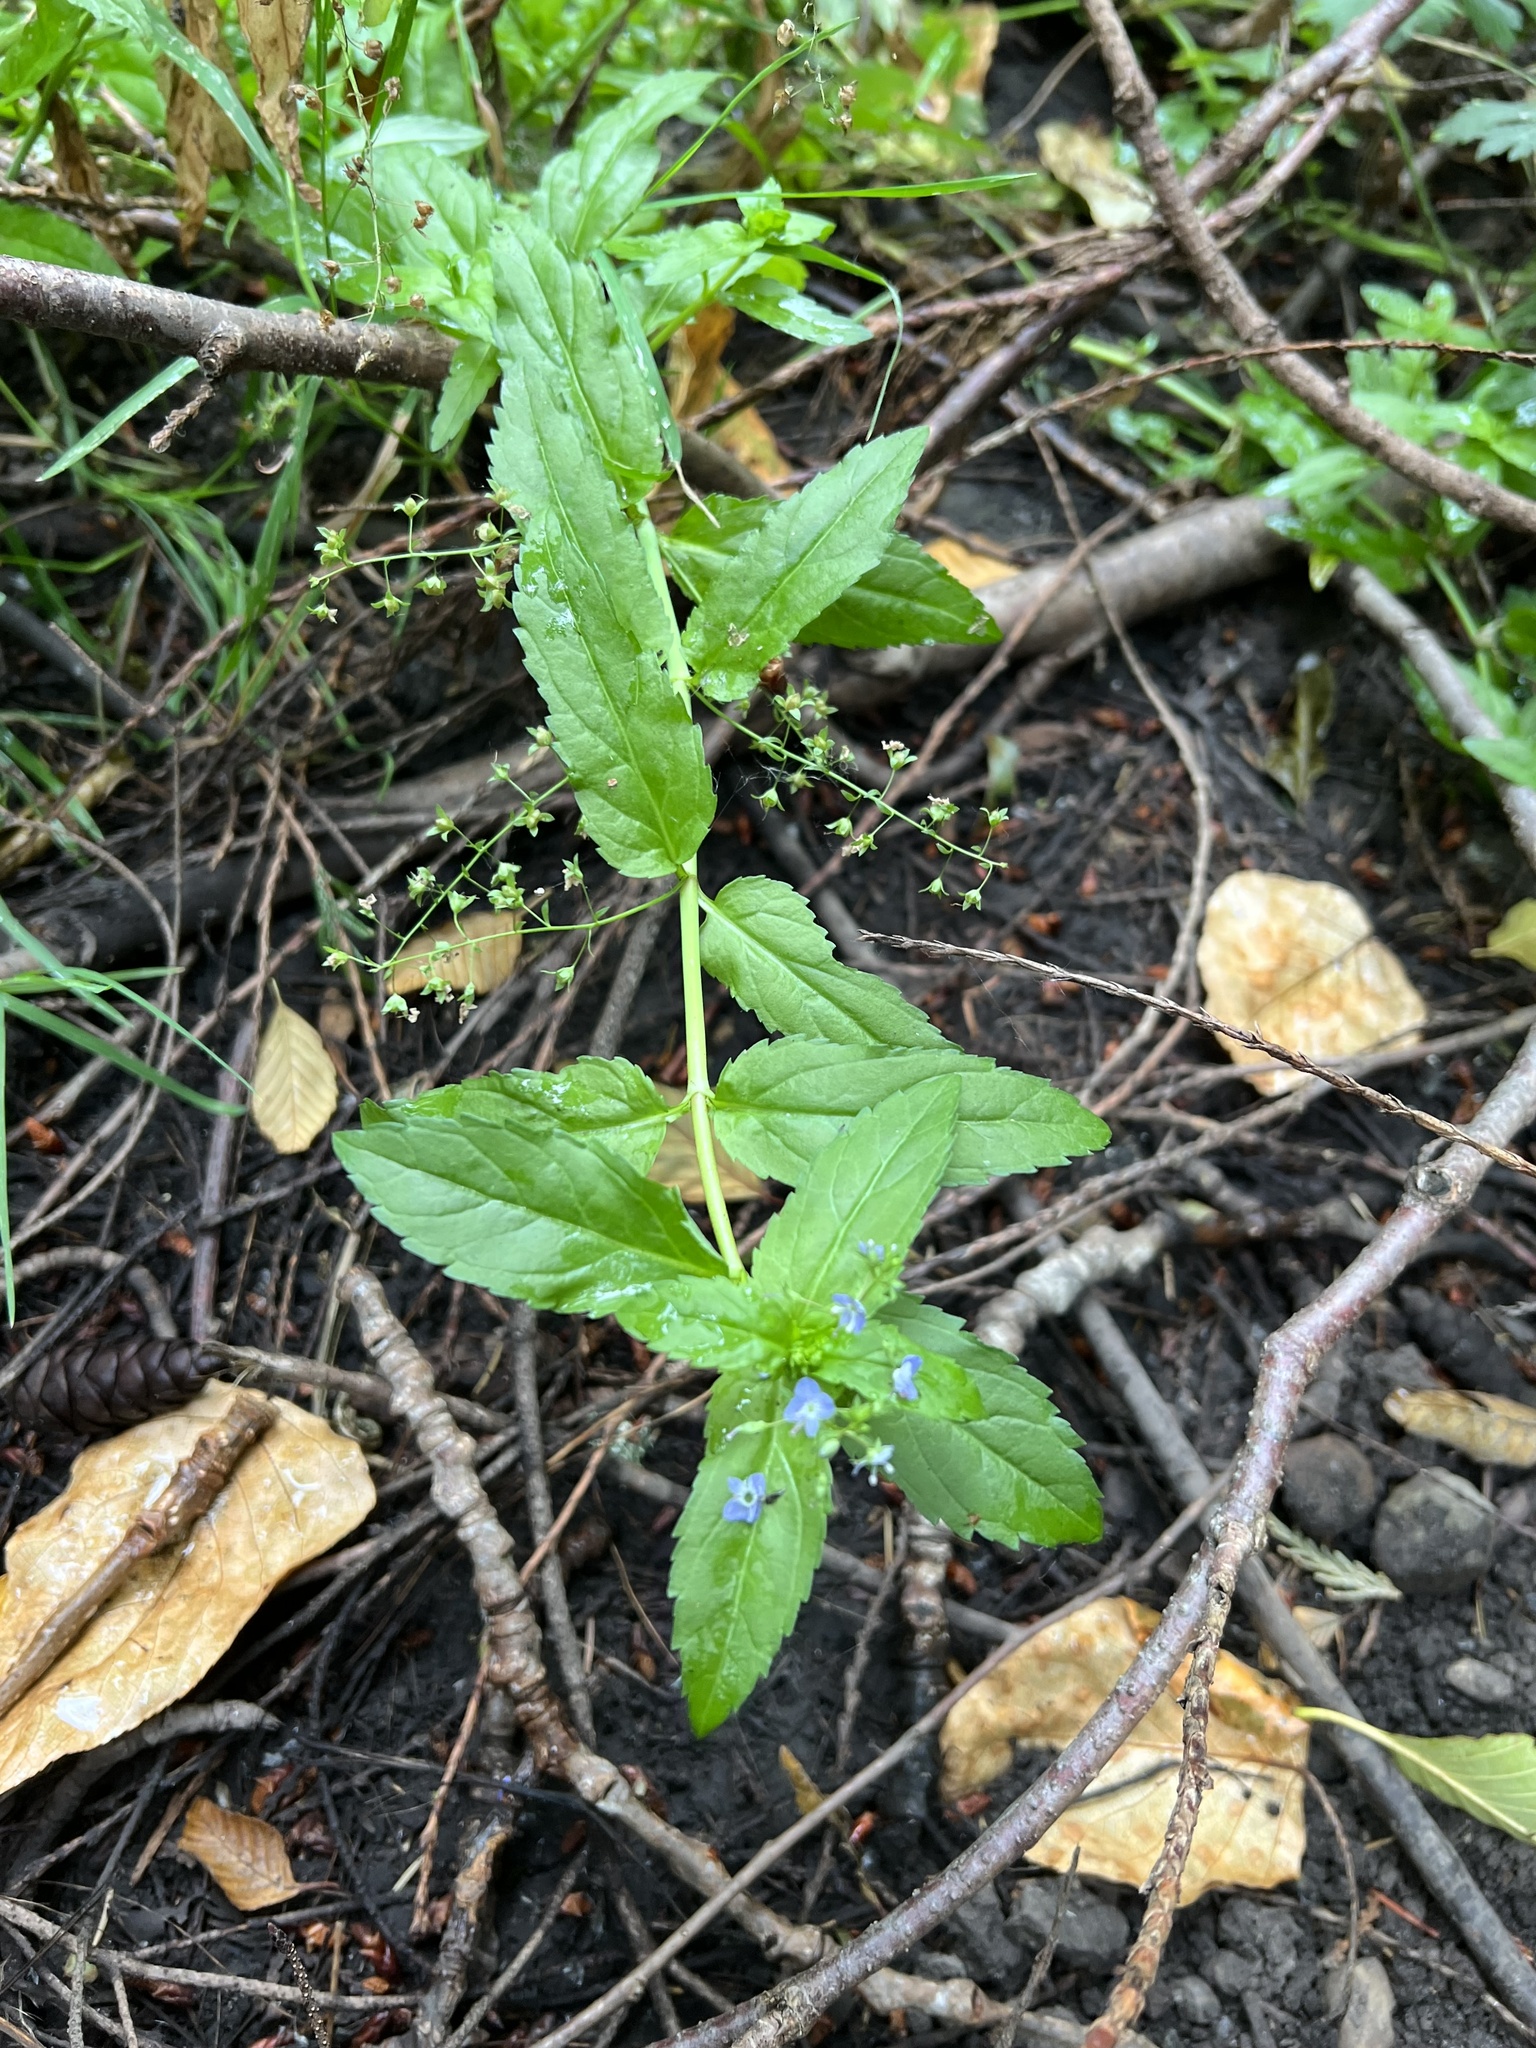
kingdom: Plantae
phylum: Tracheophyta
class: Magnoliopsida
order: Lamiales
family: Plantaginaceae
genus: Veronica
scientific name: Veronica americana
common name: American brooklime
